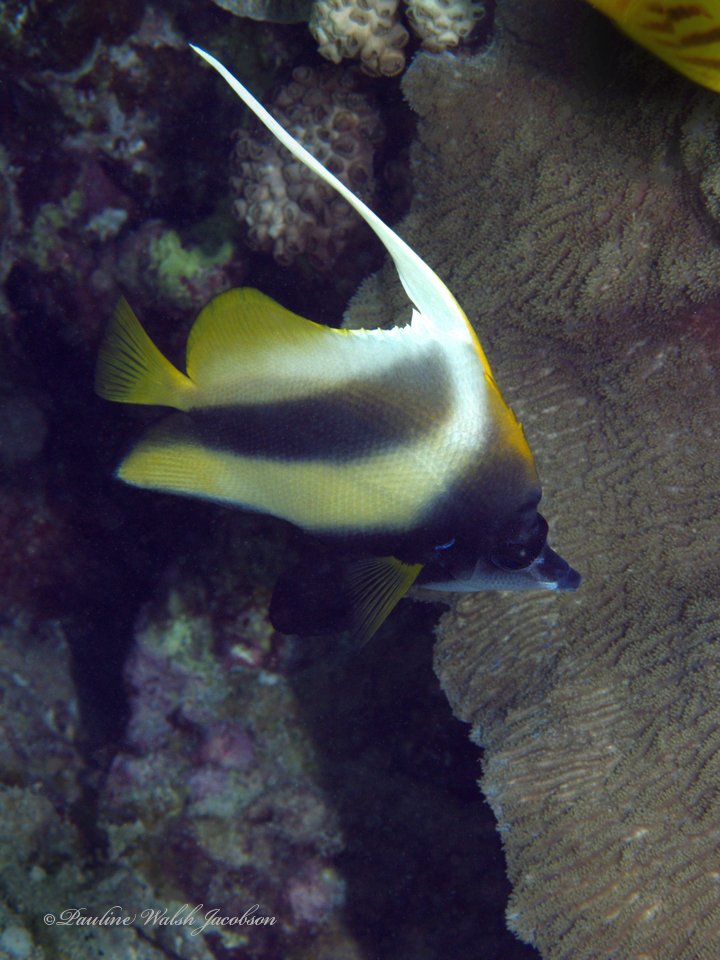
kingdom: Animalia
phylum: Chordata
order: Perciformes
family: Chaetodontidae
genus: Heniochus
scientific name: Heniochus intermedius
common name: Red sea bannerfish
